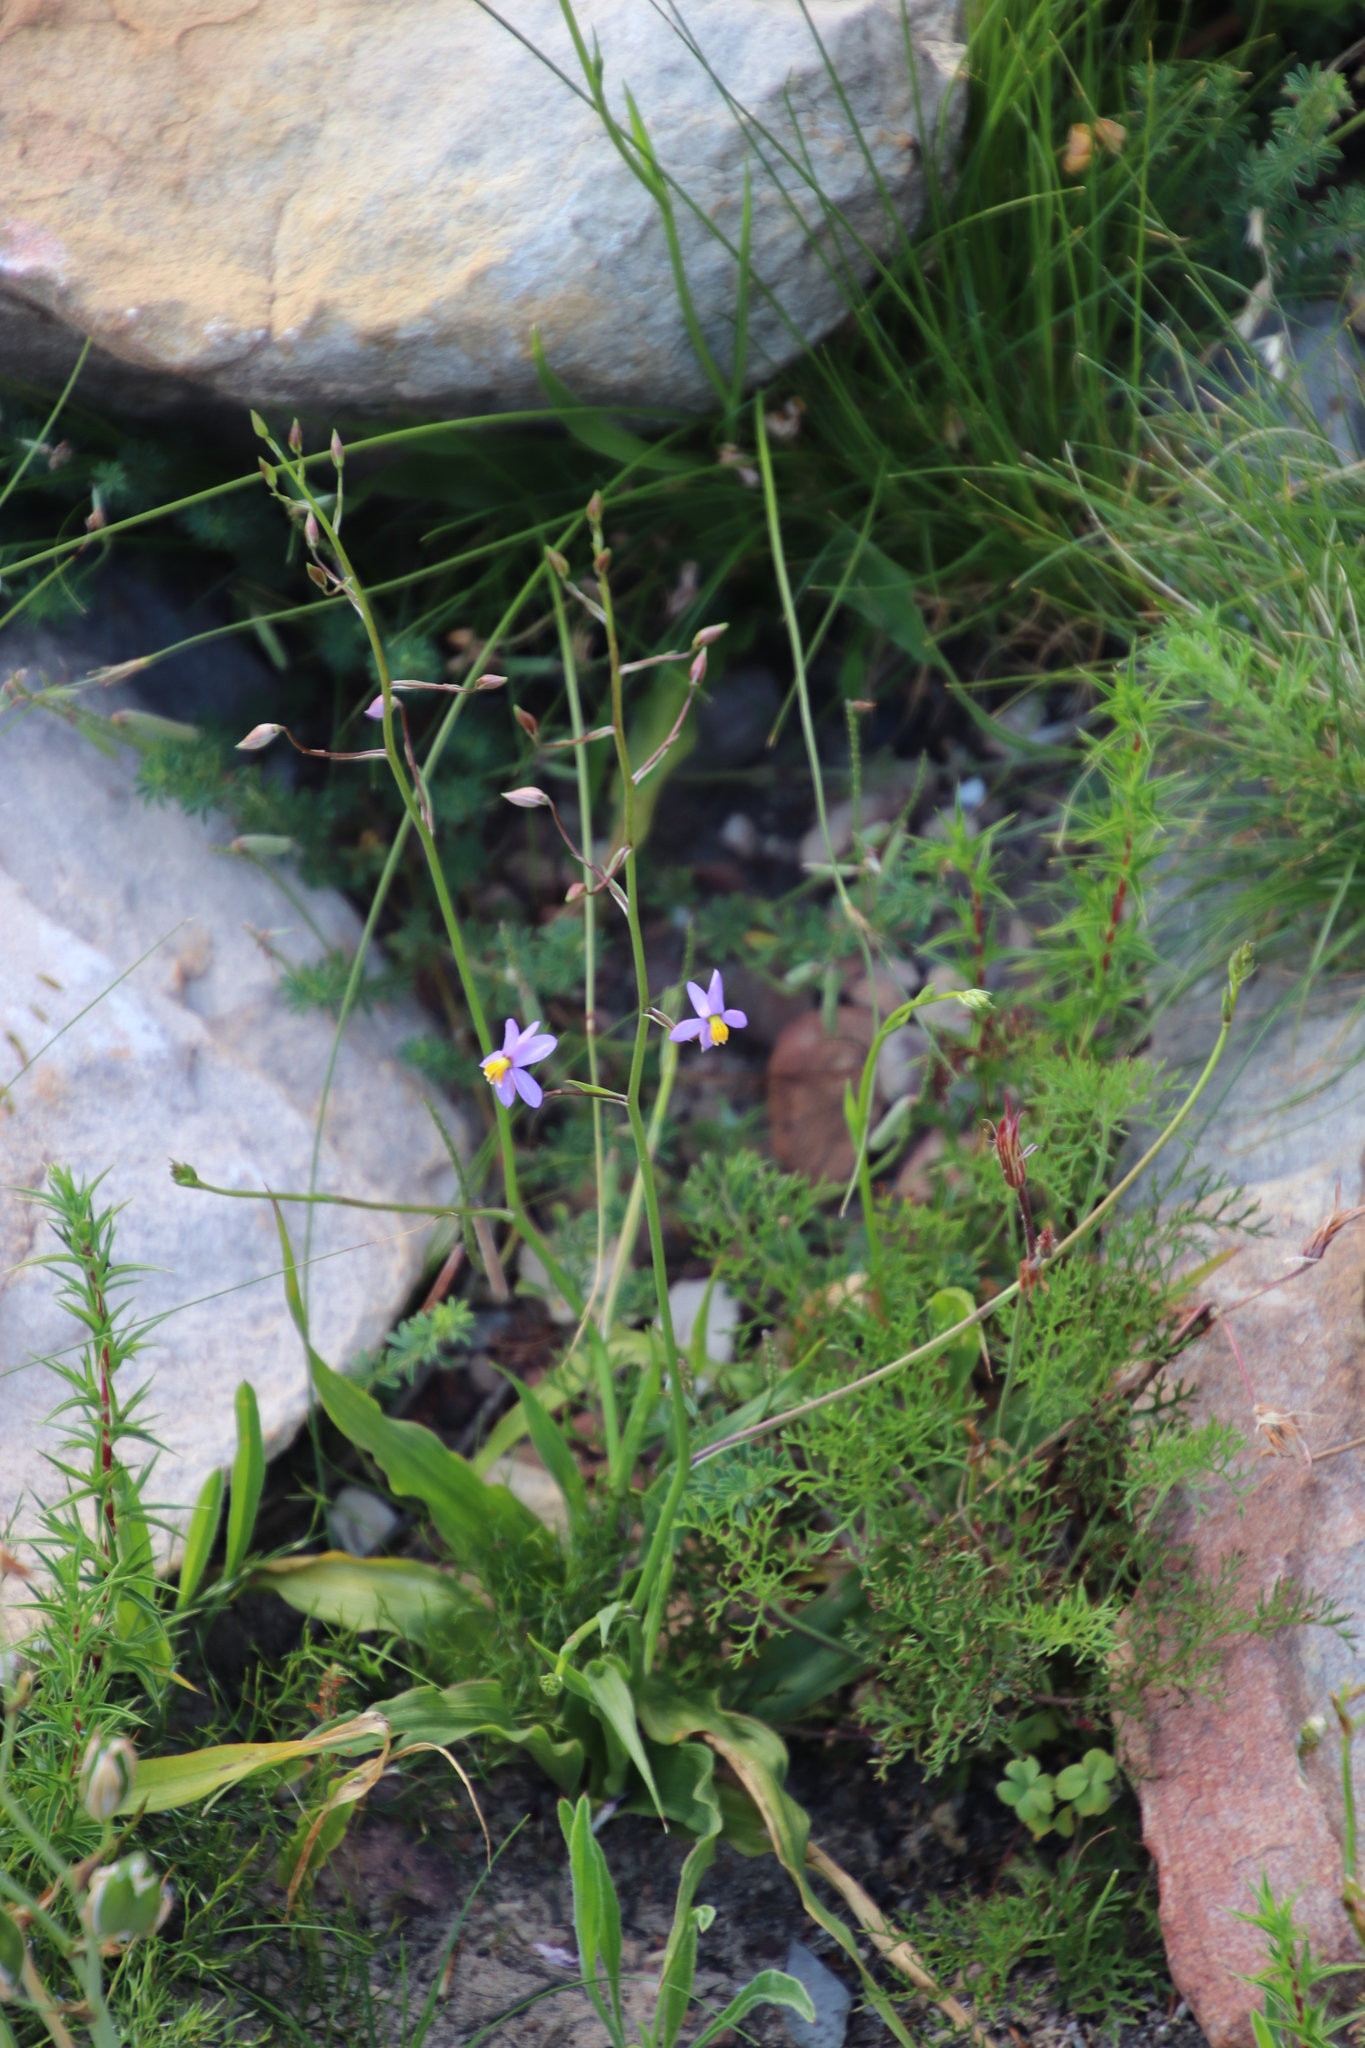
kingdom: Plantae
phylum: Tracheophyta
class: Liliopsida
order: Asparagales
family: Tecophilaeaceae
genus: Cyanella
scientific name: Cyanella hyacinthoides
